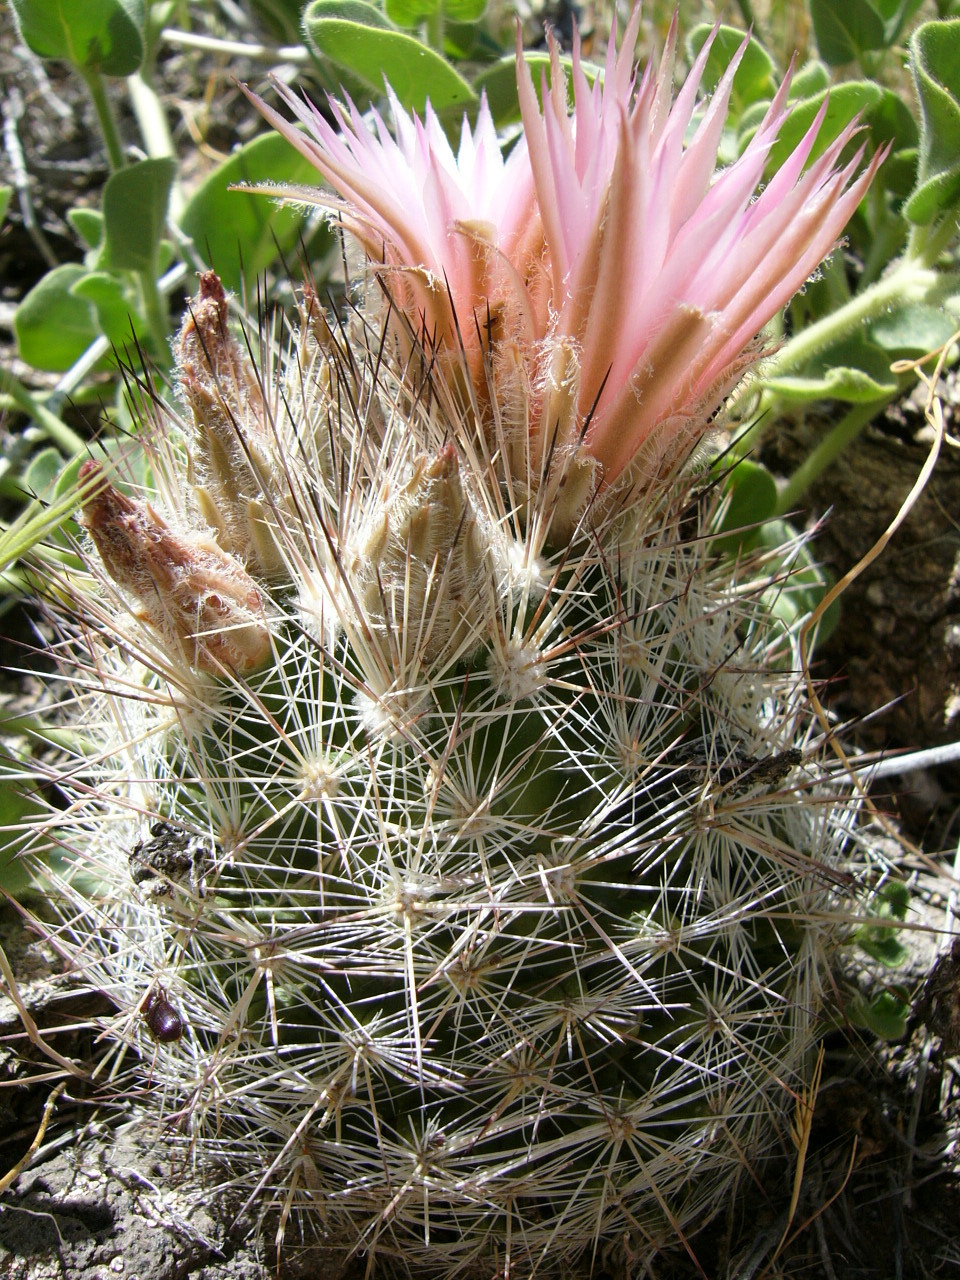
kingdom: Plantae
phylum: Tracheophyta
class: Magnoliopsida
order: Caryophyllales
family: Cactaceae
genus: Pelecyphora
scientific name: Pelecyphora vivipara
